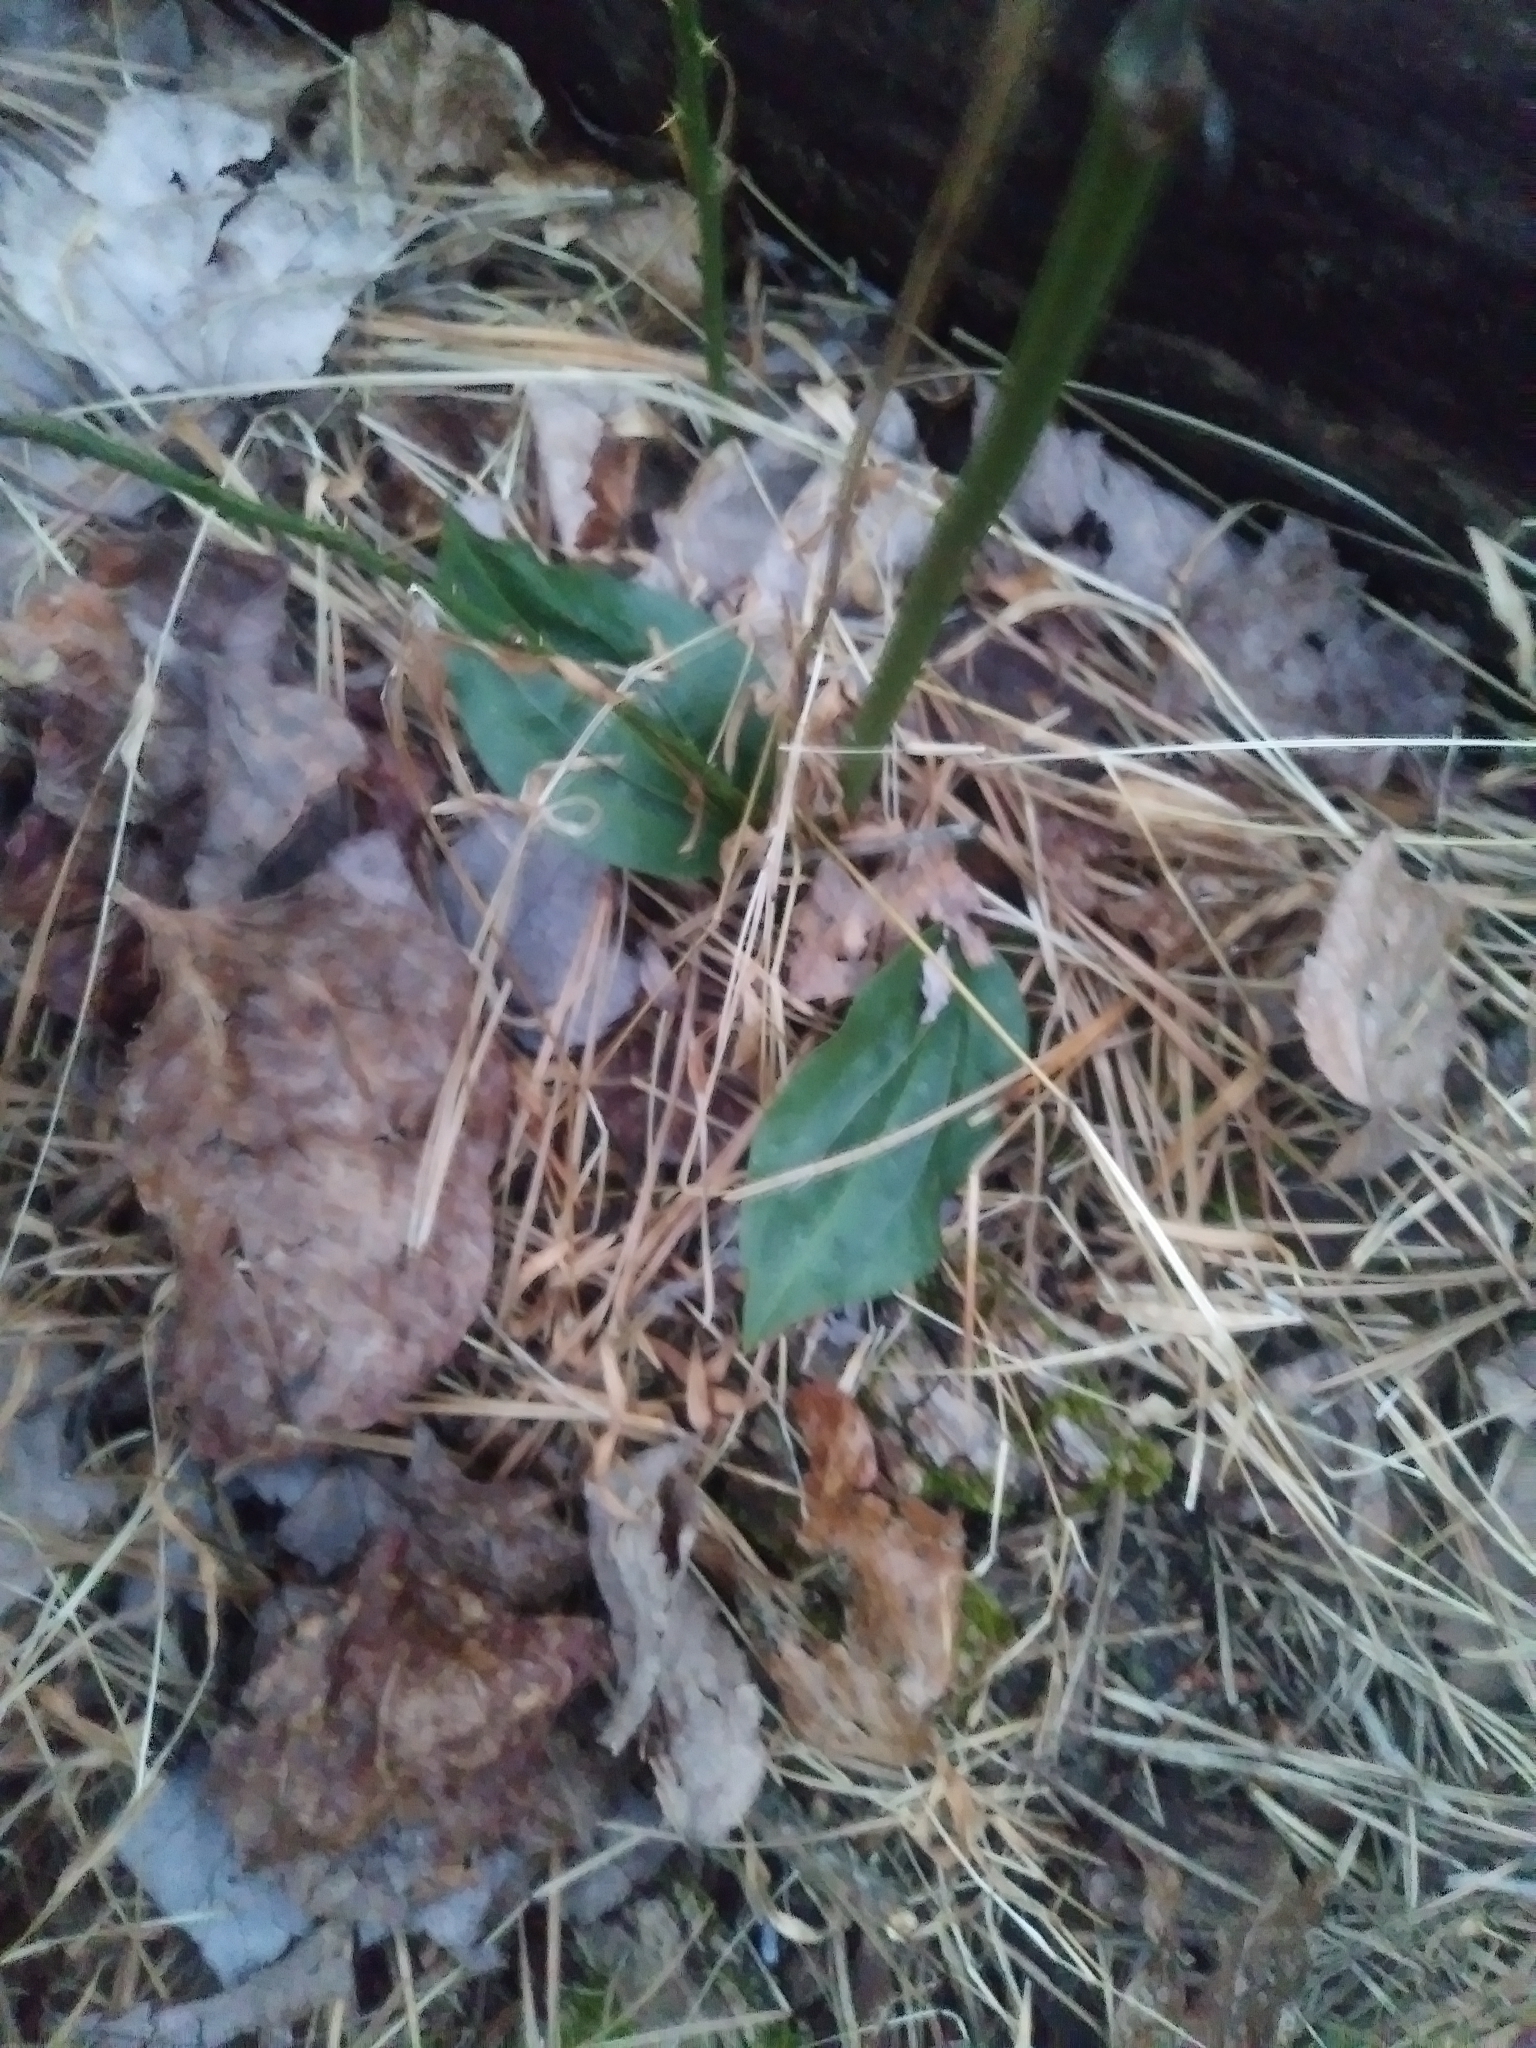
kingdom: Plantae
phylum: Tracheophyta
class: Liliopsida
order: Asparagales
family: Orchidaceae
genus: Tipularia
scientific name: Tipularia discolor
